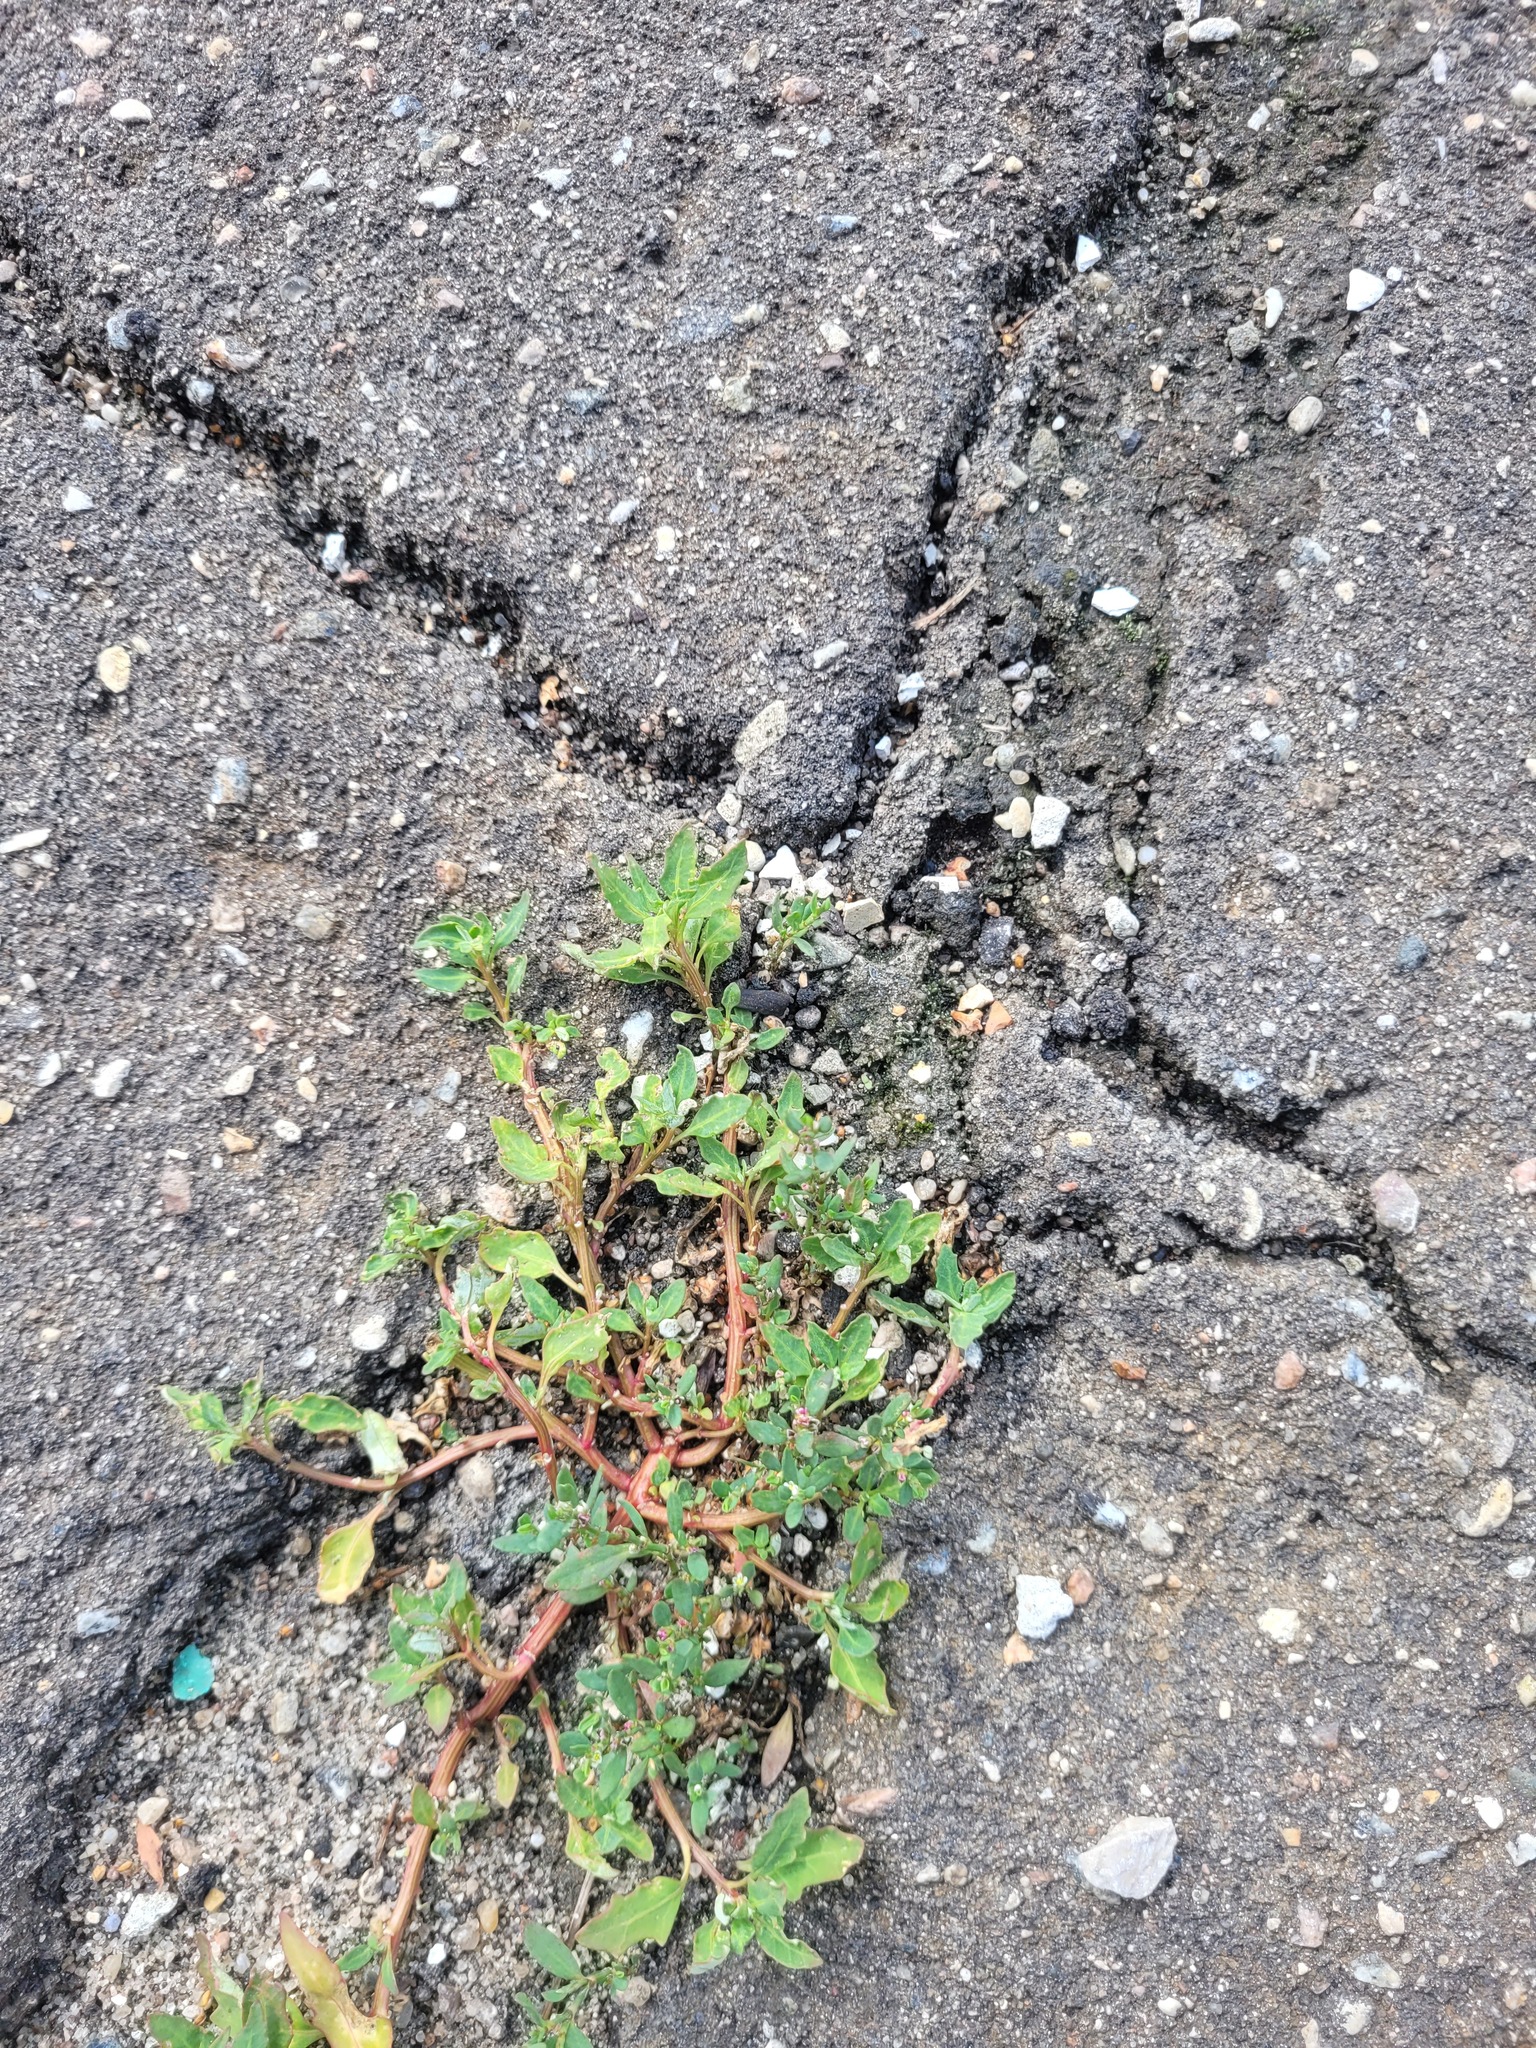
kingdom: Plantae
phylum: Tracheophyta
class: Magnoliopsida
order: Caryophyllales
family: Amaranthaceae
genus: Oxybasis
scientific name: Oxybasis glauca
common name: Glaucous goosefoot
